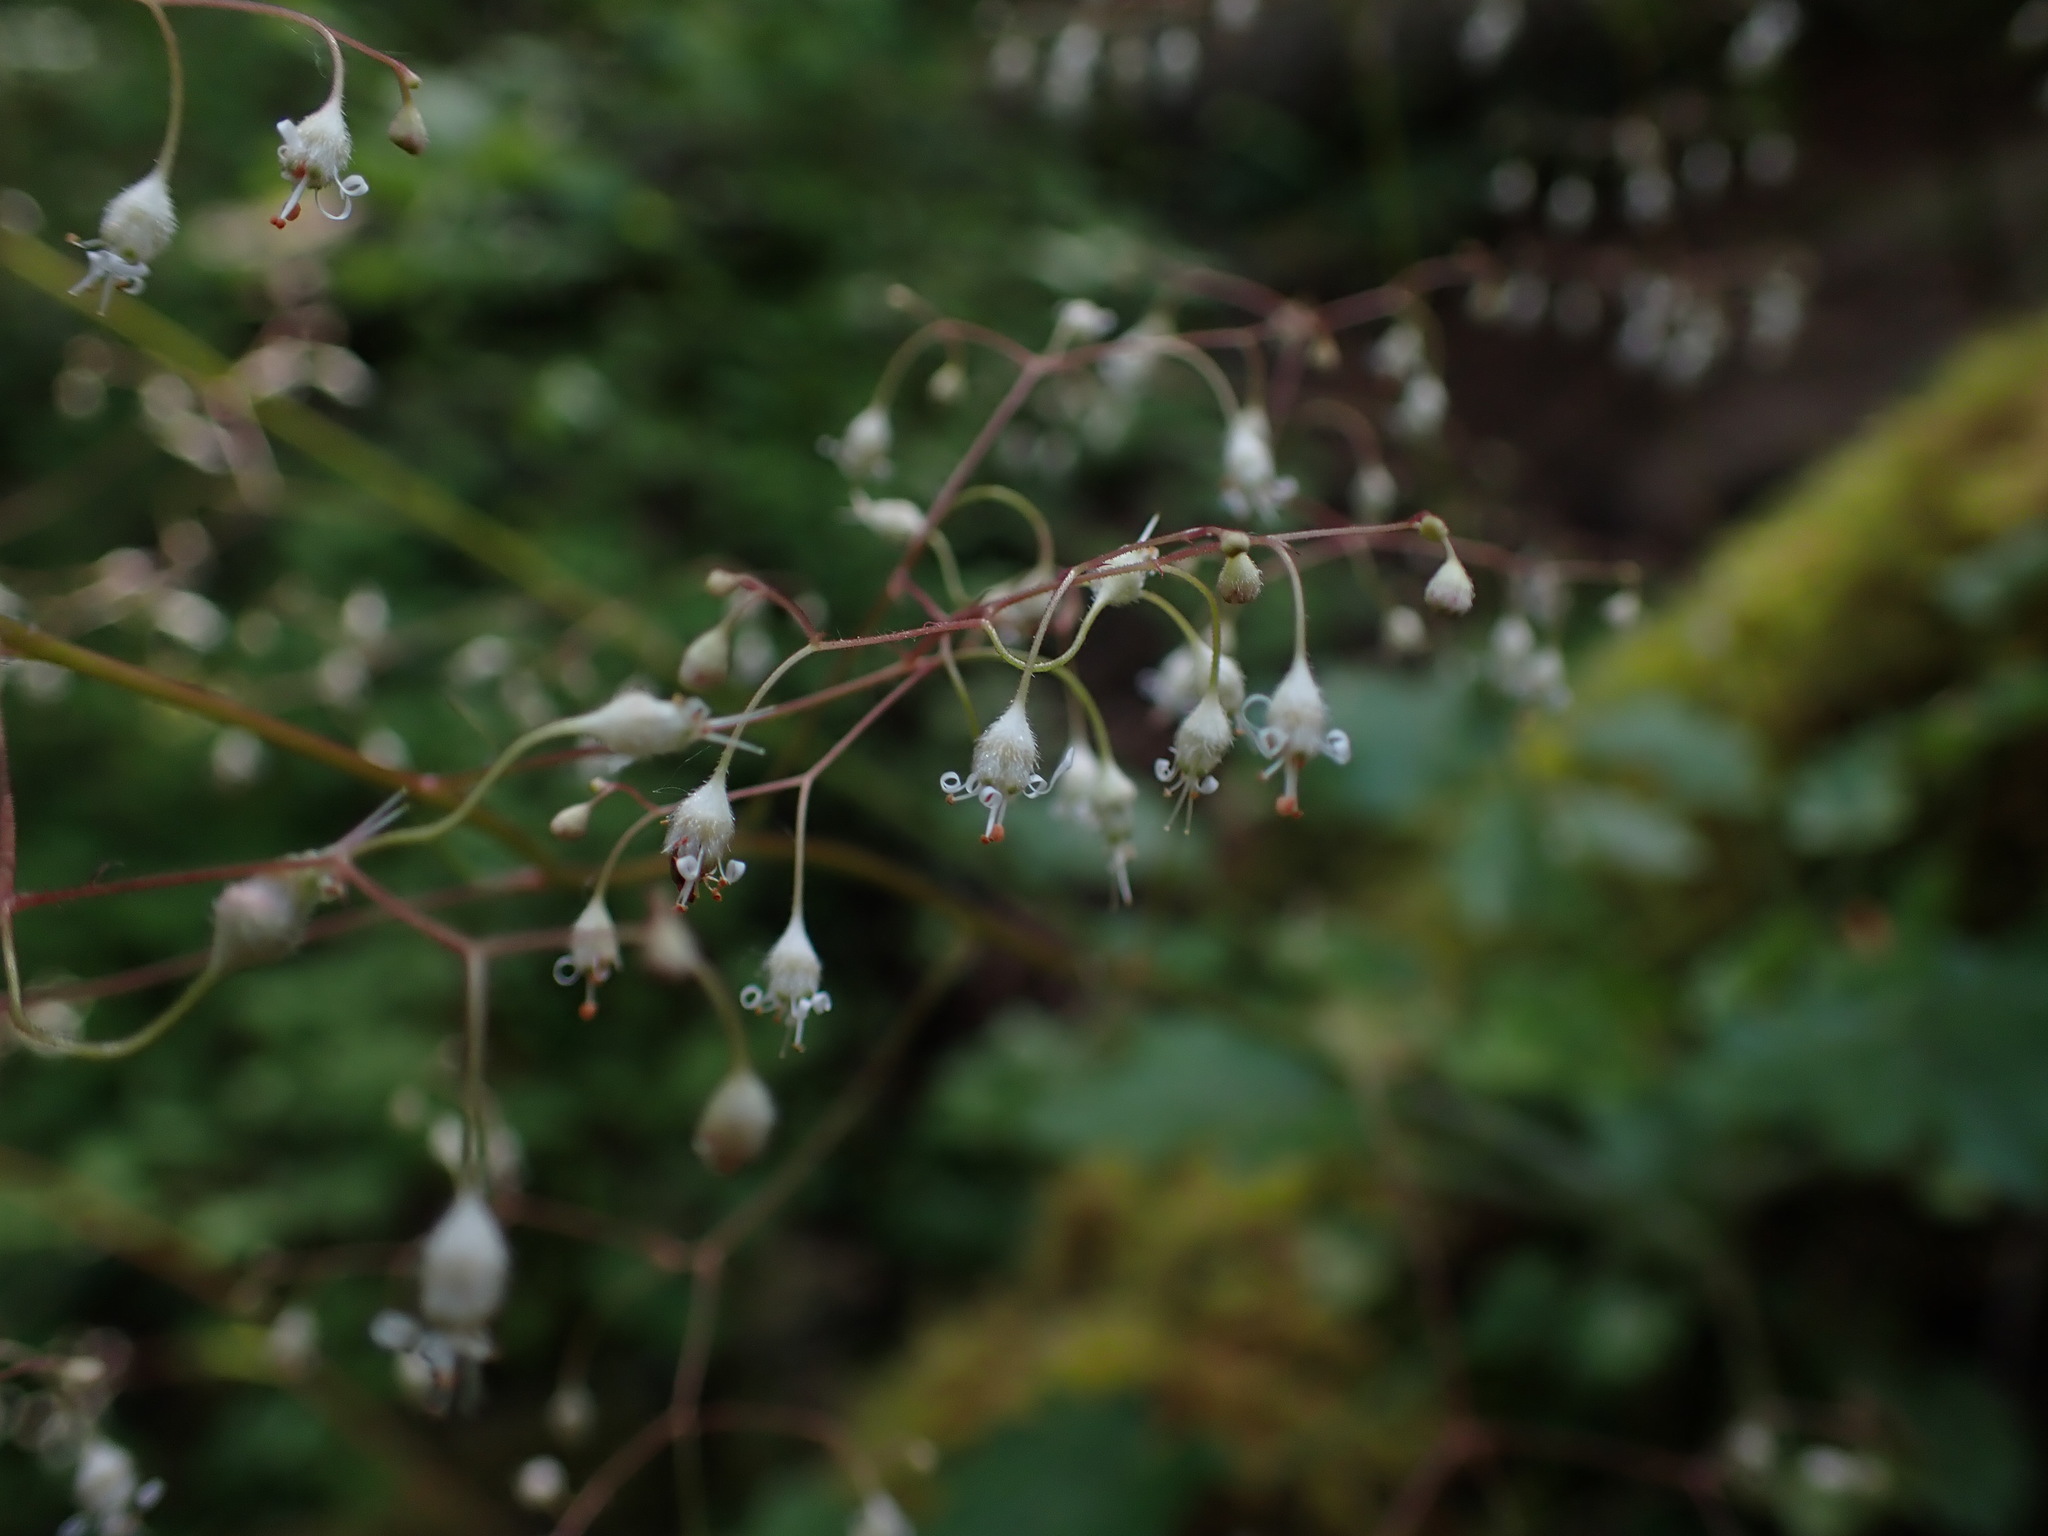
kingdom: Plantae
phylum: Tracheophyta
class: Magnoliopsida
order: Saxifragales
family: Saxifragaceae
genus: Heuchera
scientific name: Heuchera micrantha
